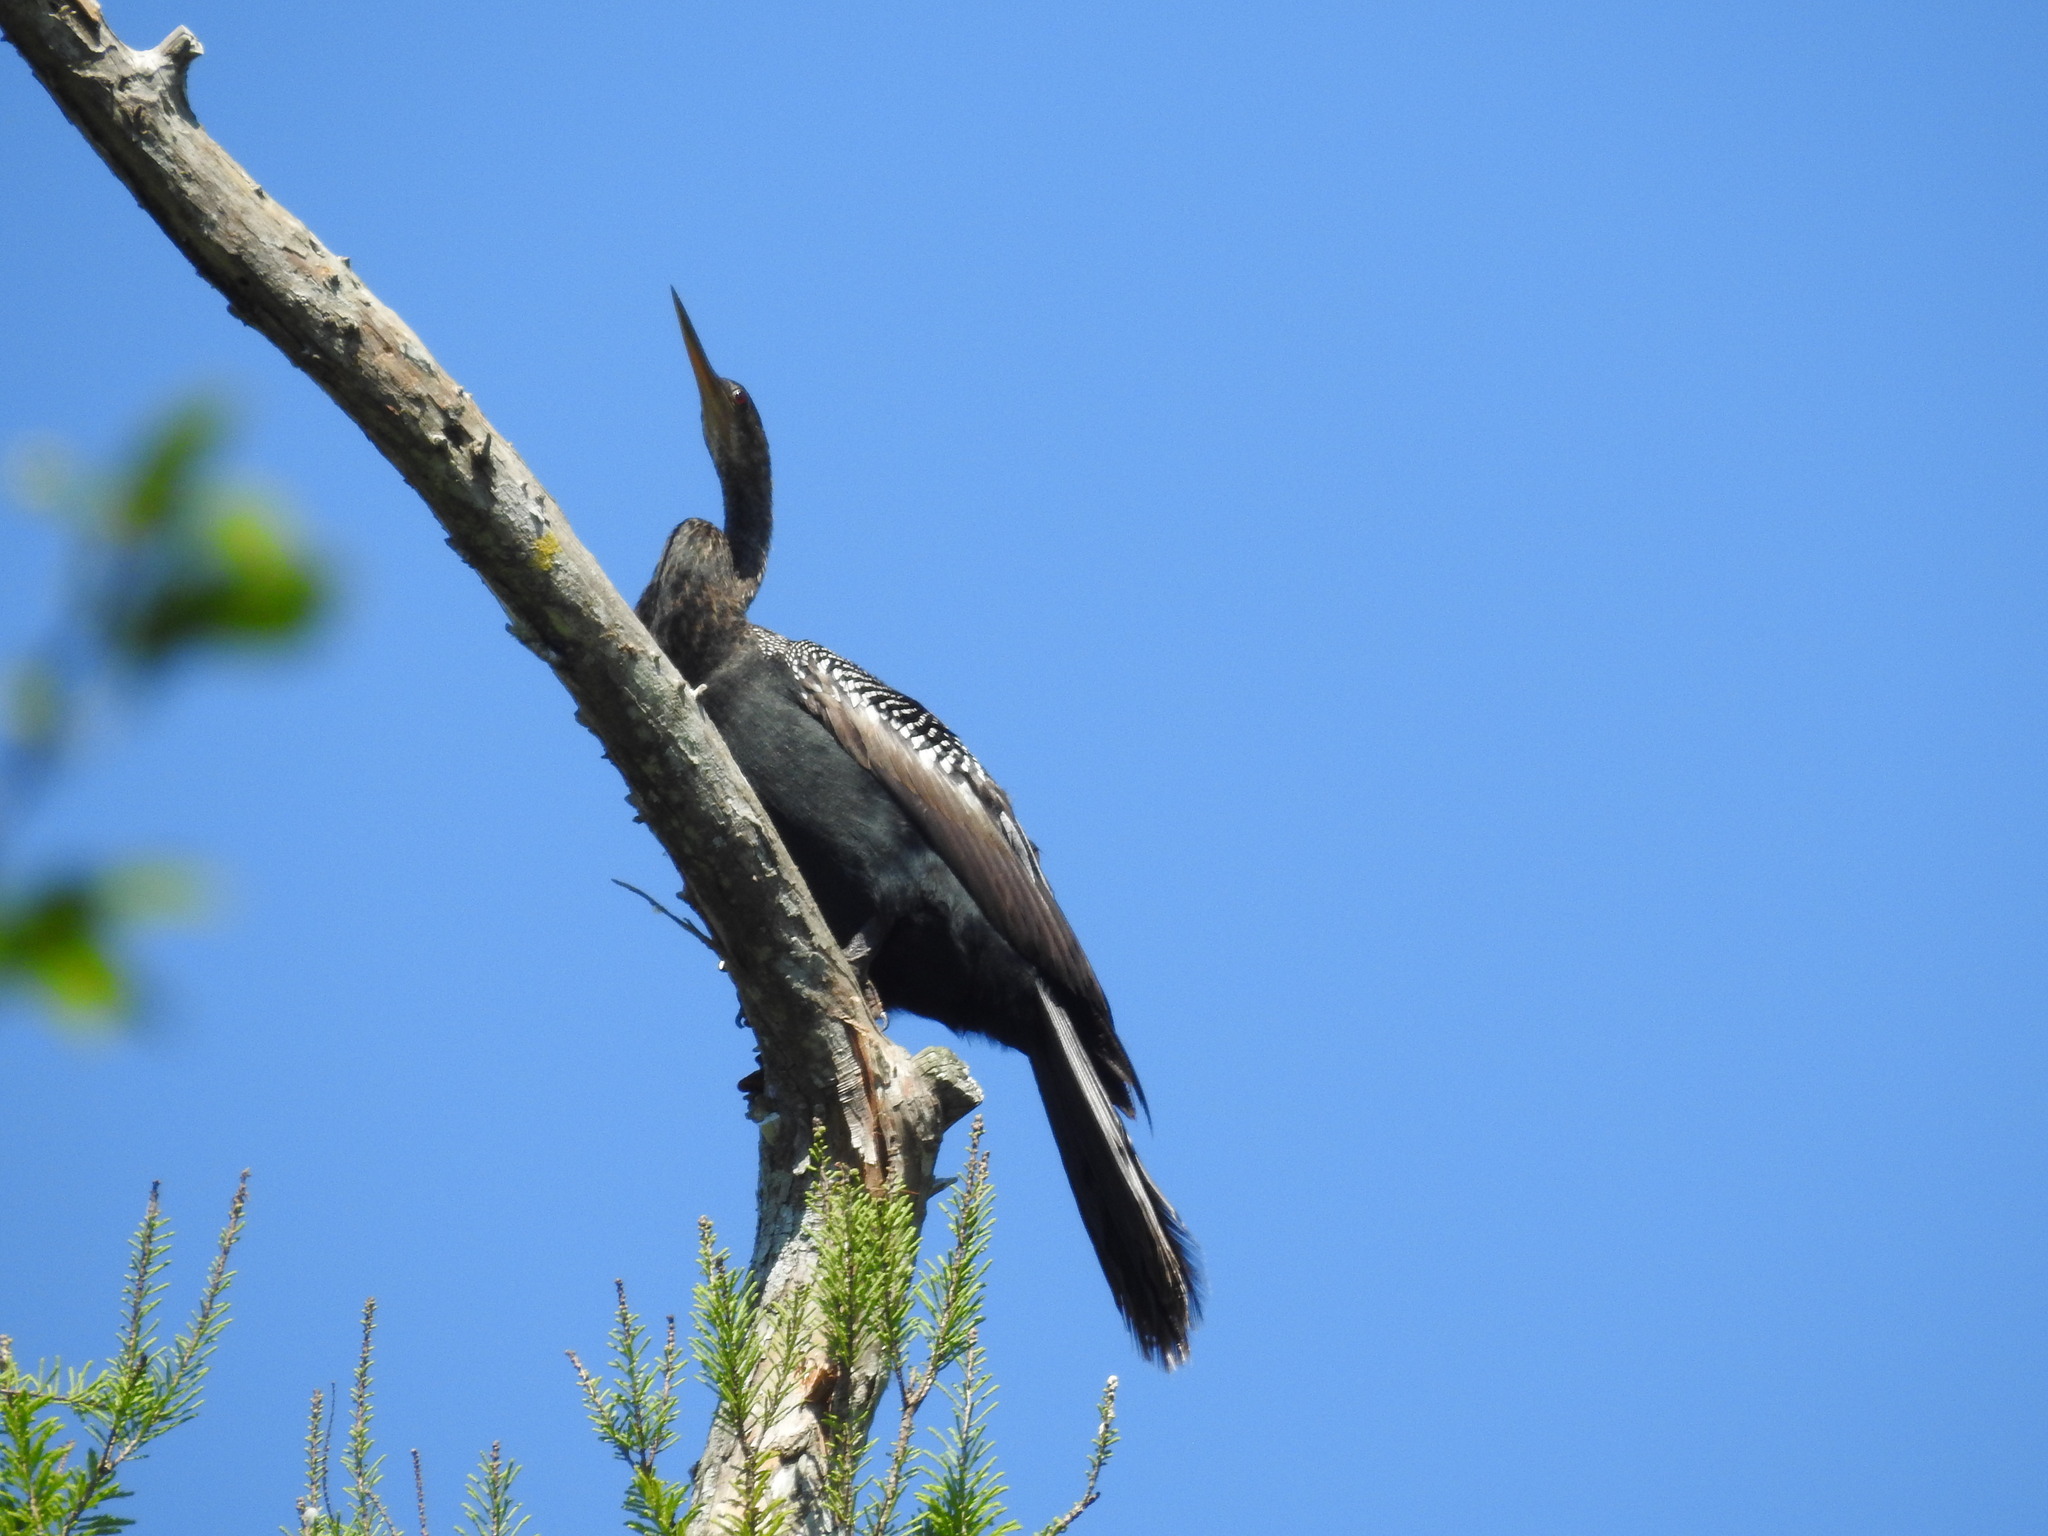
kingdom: Animalia
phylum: Chordata
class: Aves
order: Suliformes
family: Anhingidae
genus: Anhinga
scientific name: Anhinga anhinga
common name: Anhinga
